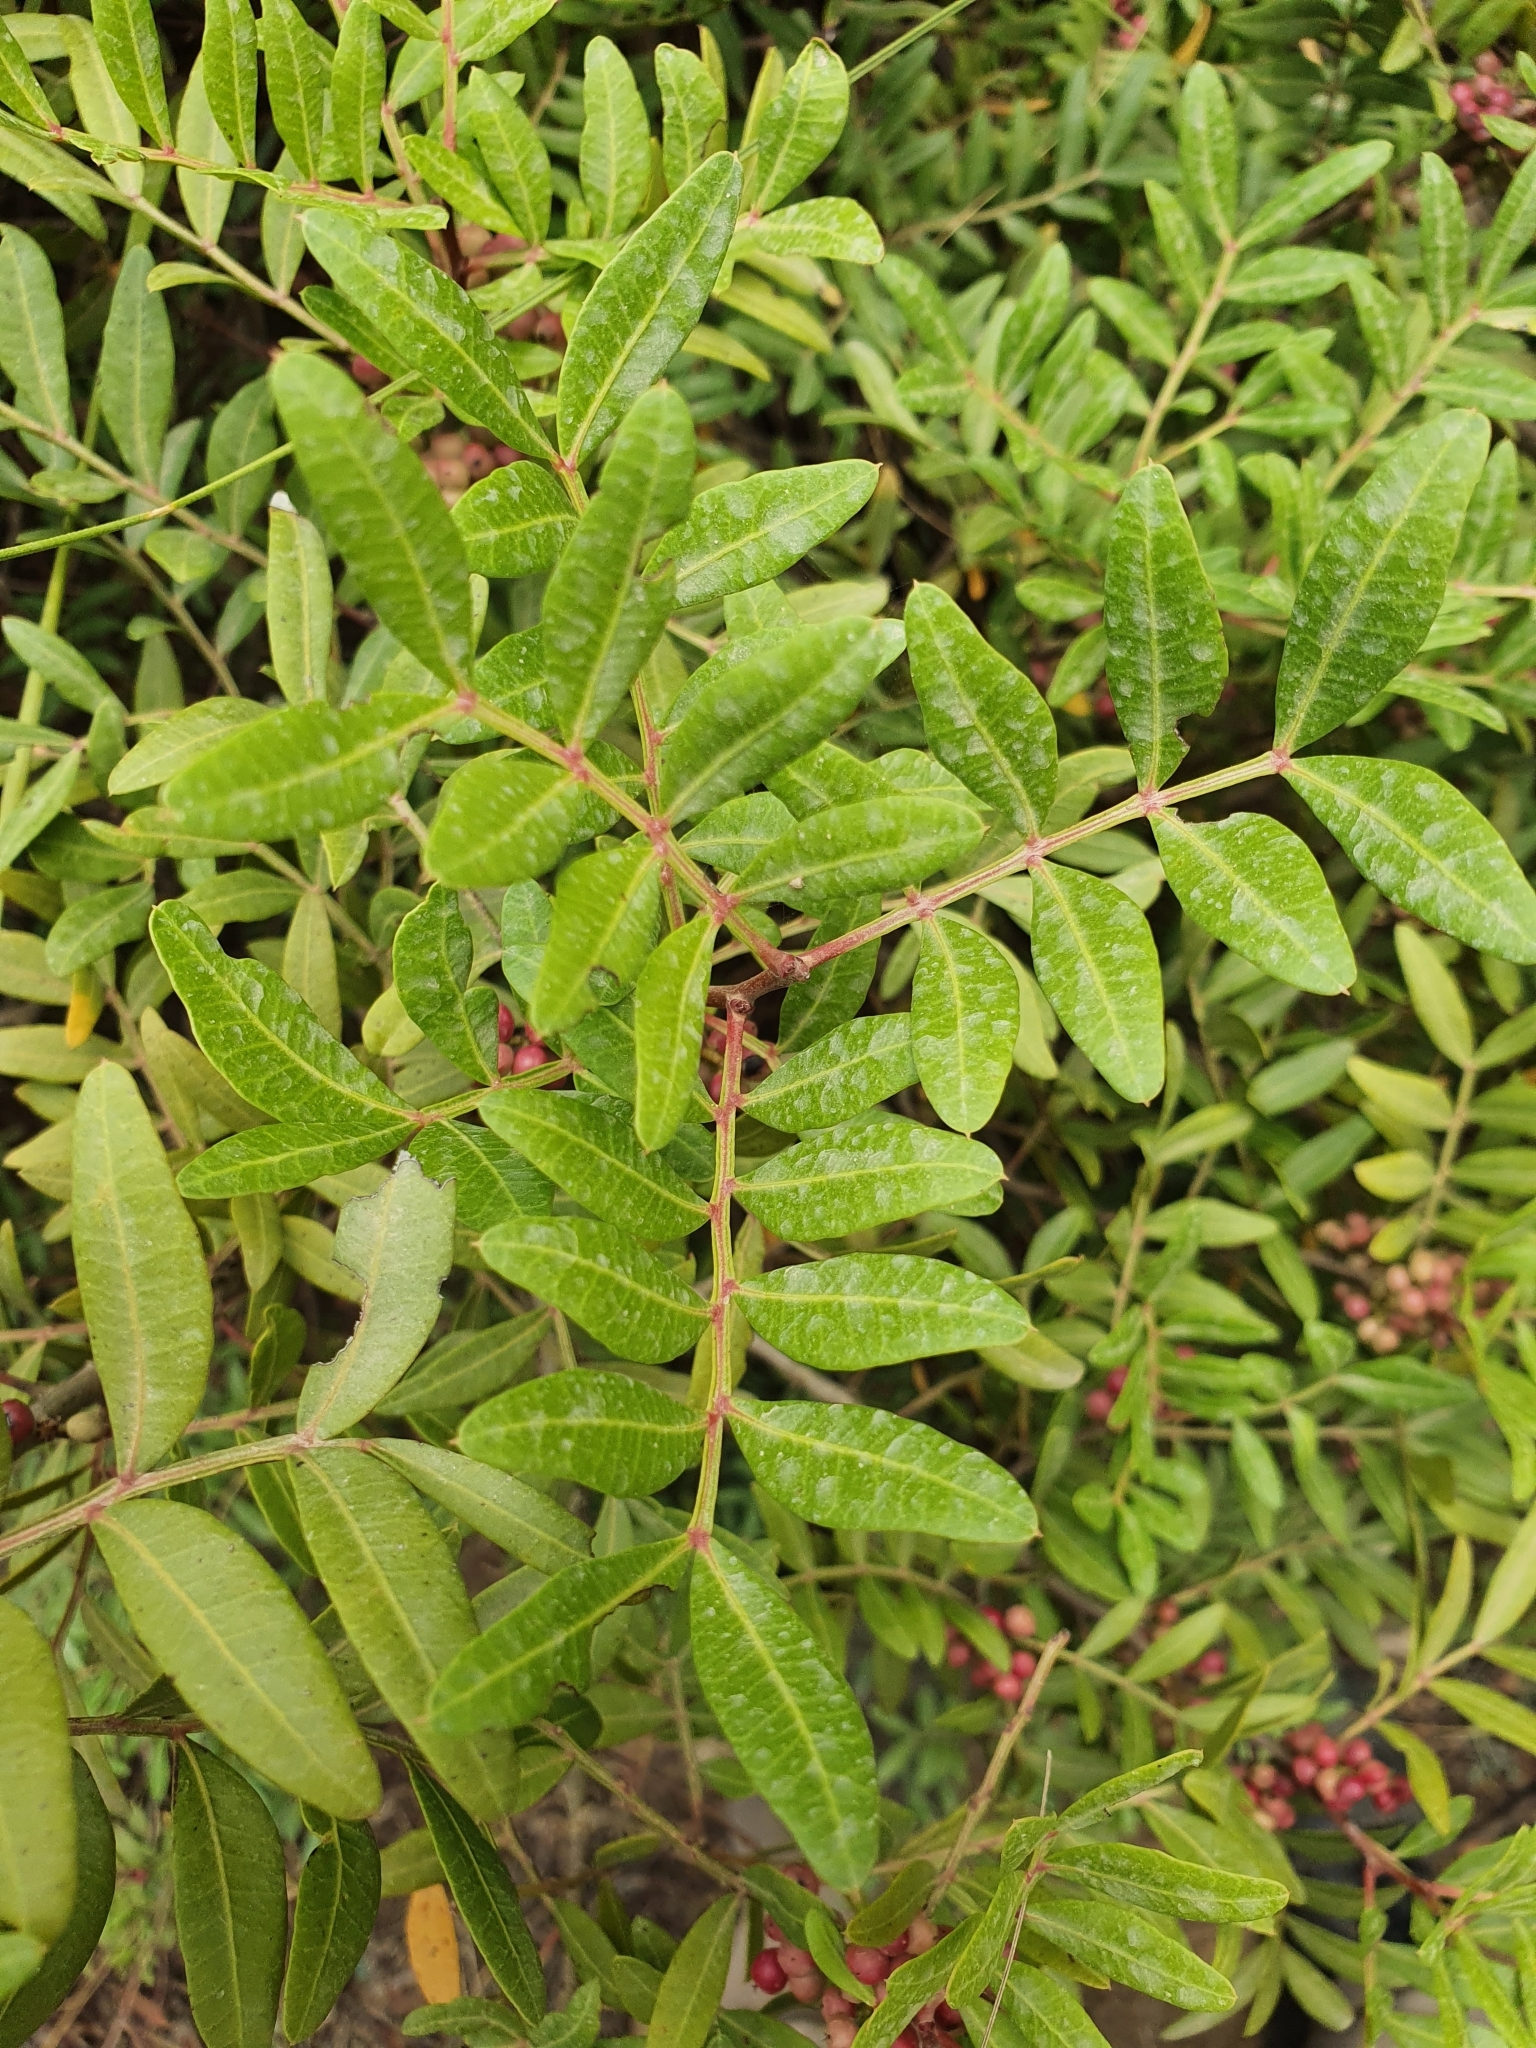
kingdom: Plantae
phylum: Tracheophyta
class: Magnoliopsida
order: Sapindales
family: Anacardiaceae
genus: Pistacia
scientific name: Pistacia lentiscus
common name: Lentisk
